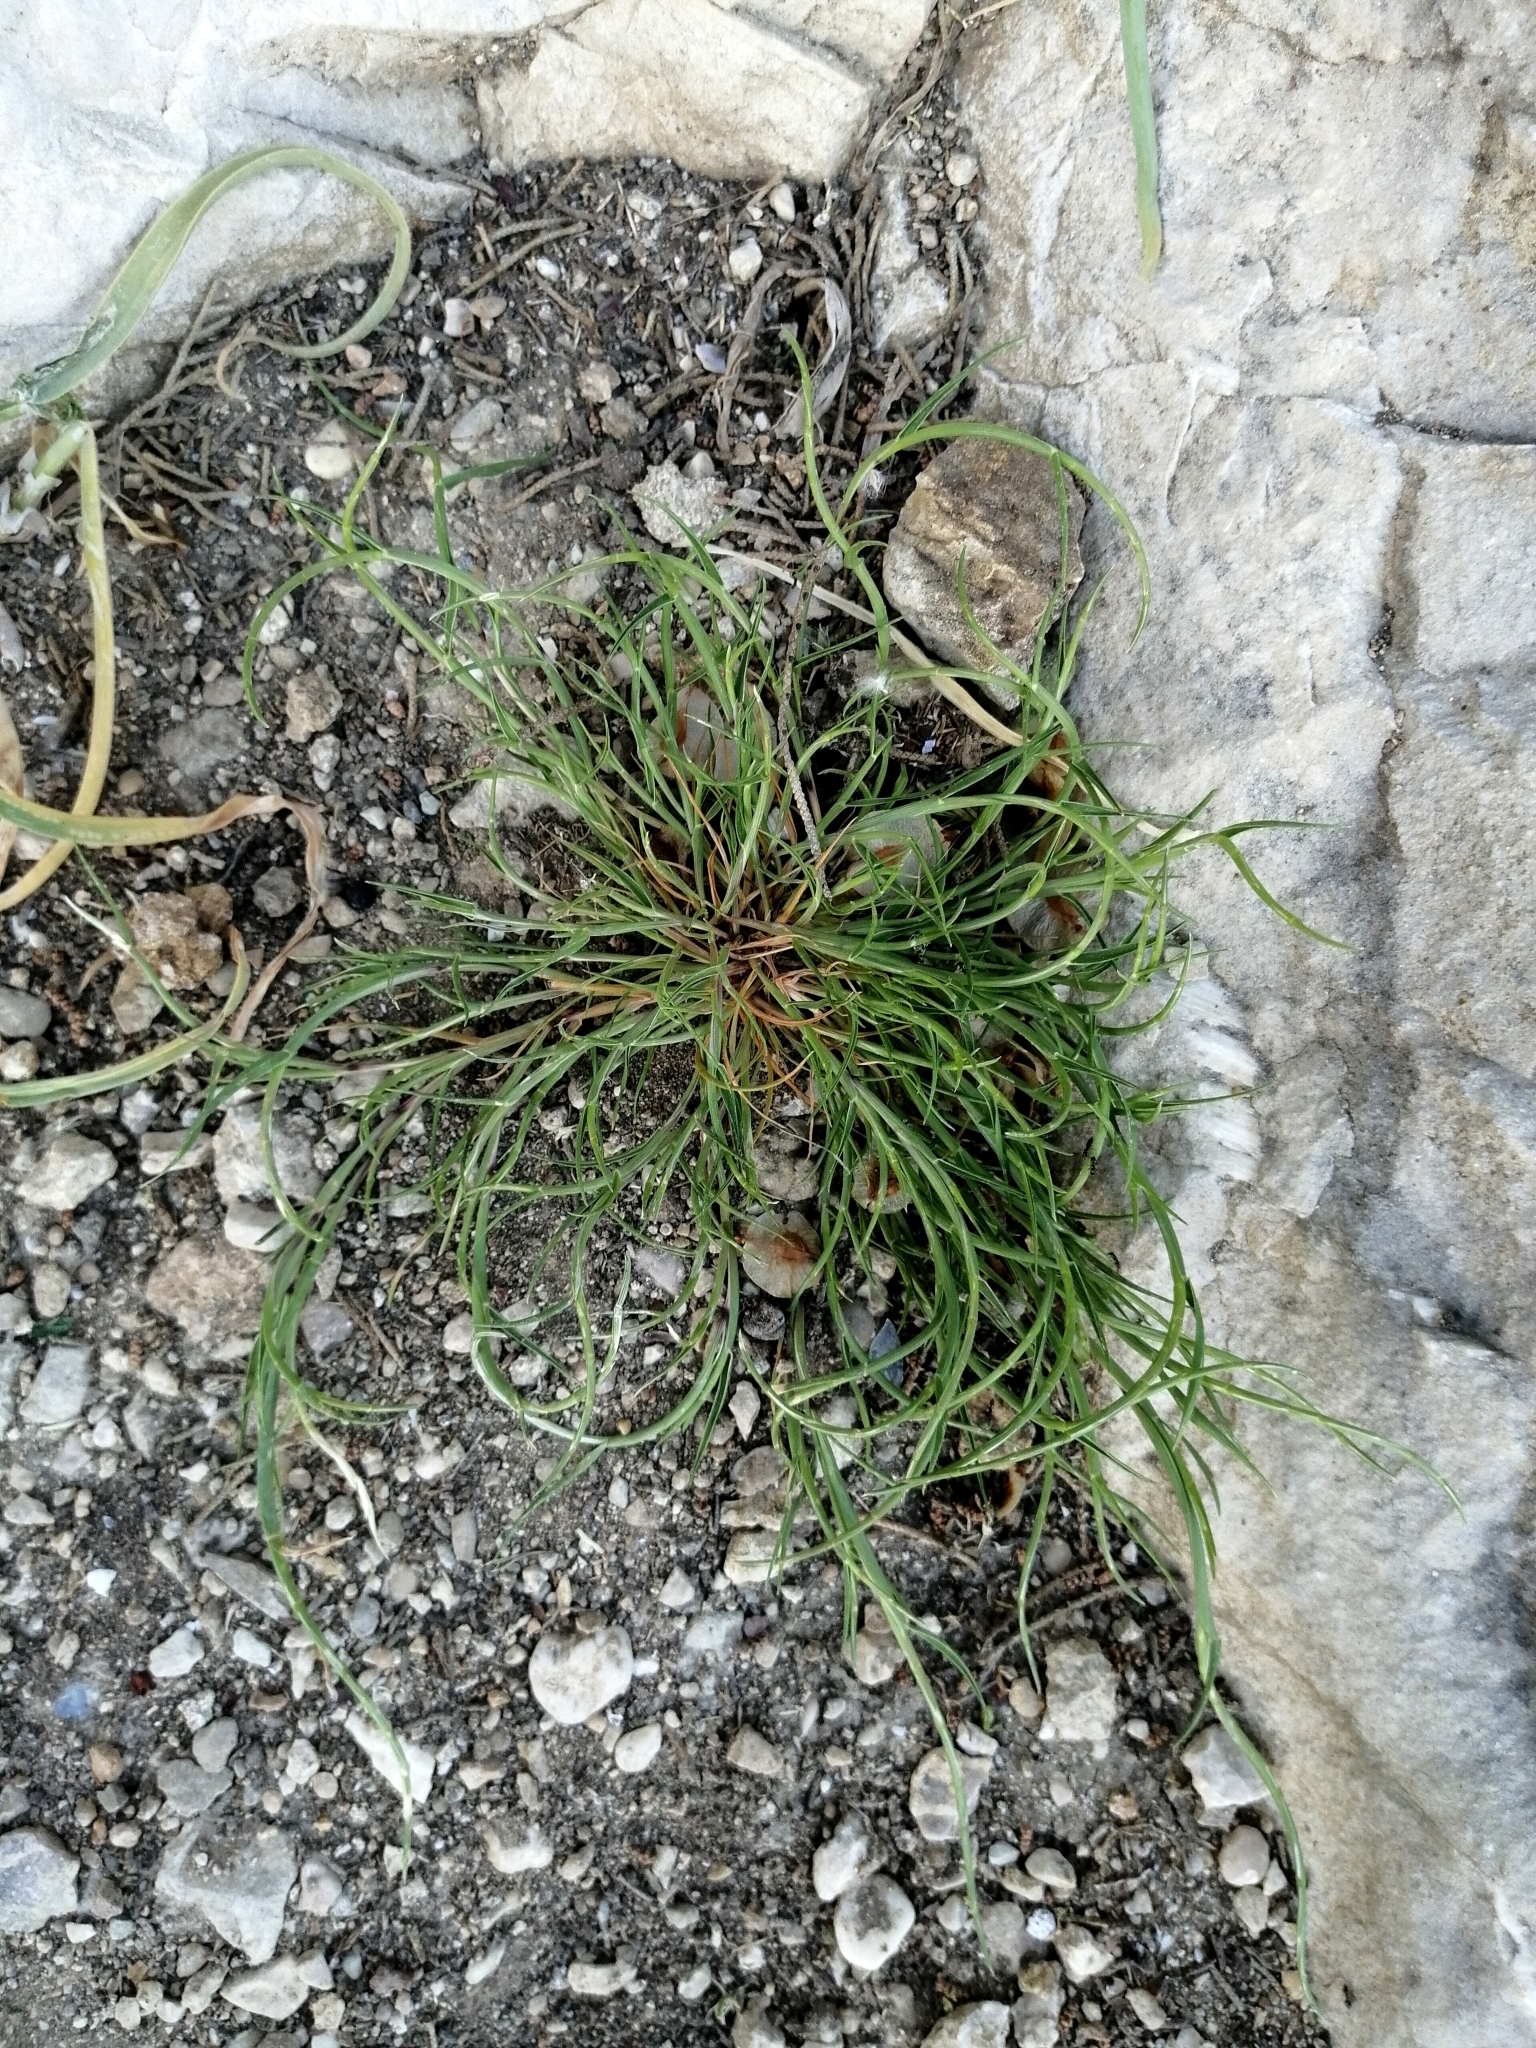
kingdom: Plantae
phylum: Tracheophyta
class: Liliopsida
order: Poales
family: Poaceae
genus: Parapholis
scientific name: Parapholis incurva
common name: Curved sicklegrass
